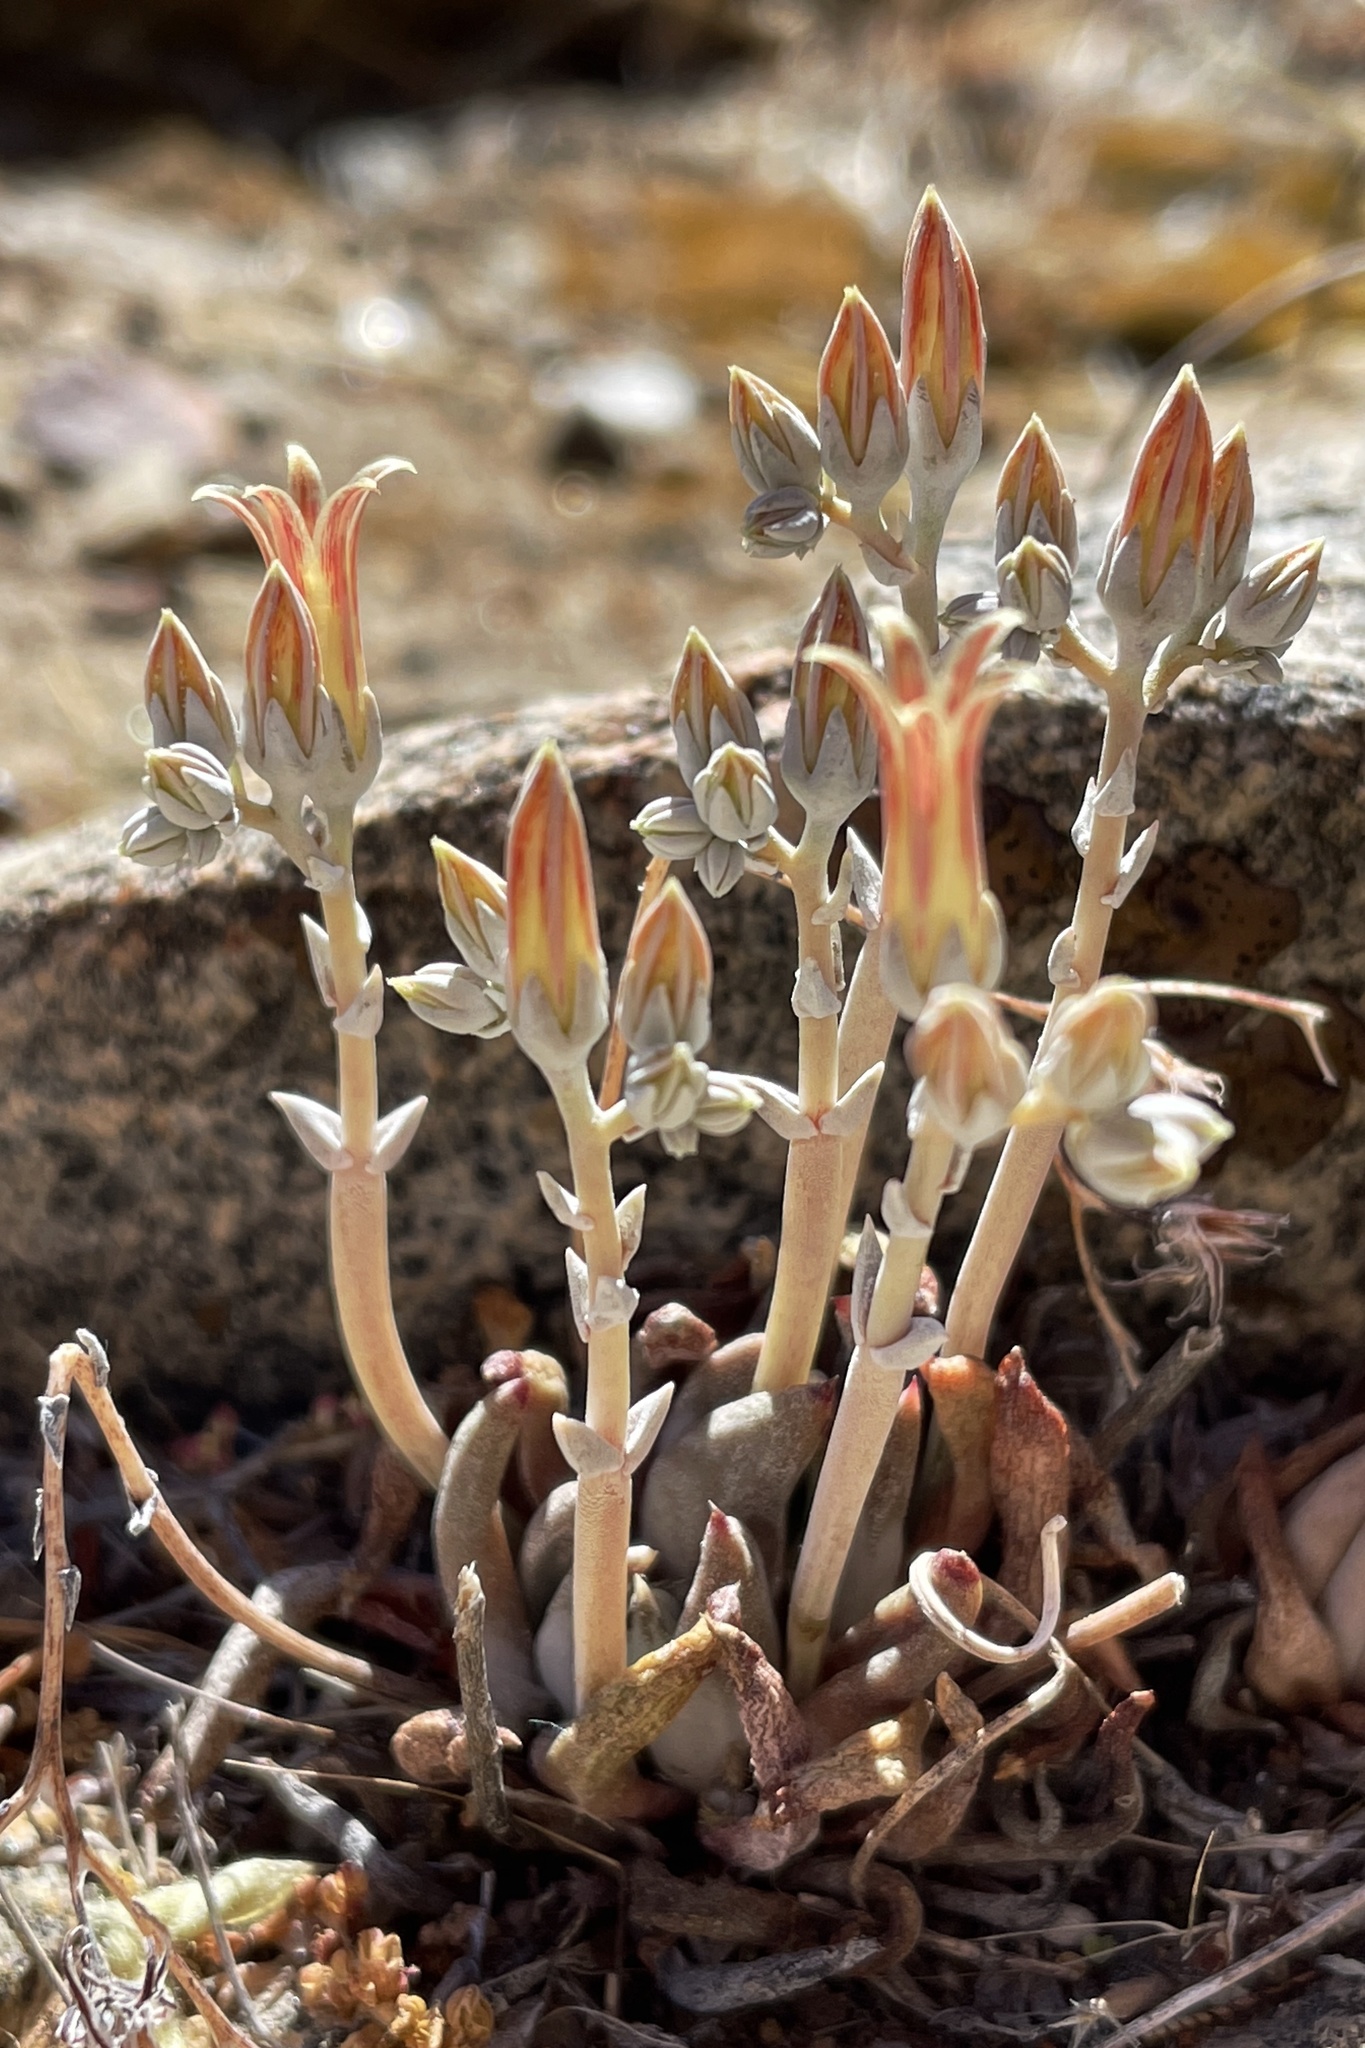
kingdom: Plantae
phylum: Tracheophyta
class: Magnoliopsida
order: Saxifragales
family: Crassulaceae
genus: Dudleya
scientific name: Dudleya abramsii
